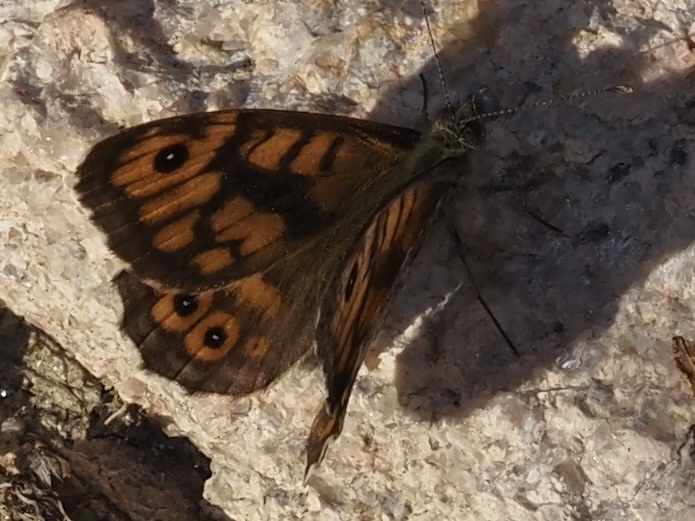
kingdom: Animalia
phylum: Arthropoda
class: Insecta
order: Lepidoptera
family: Nymphalidae
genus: Pararge
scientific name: Pararge Lasiommata megera
